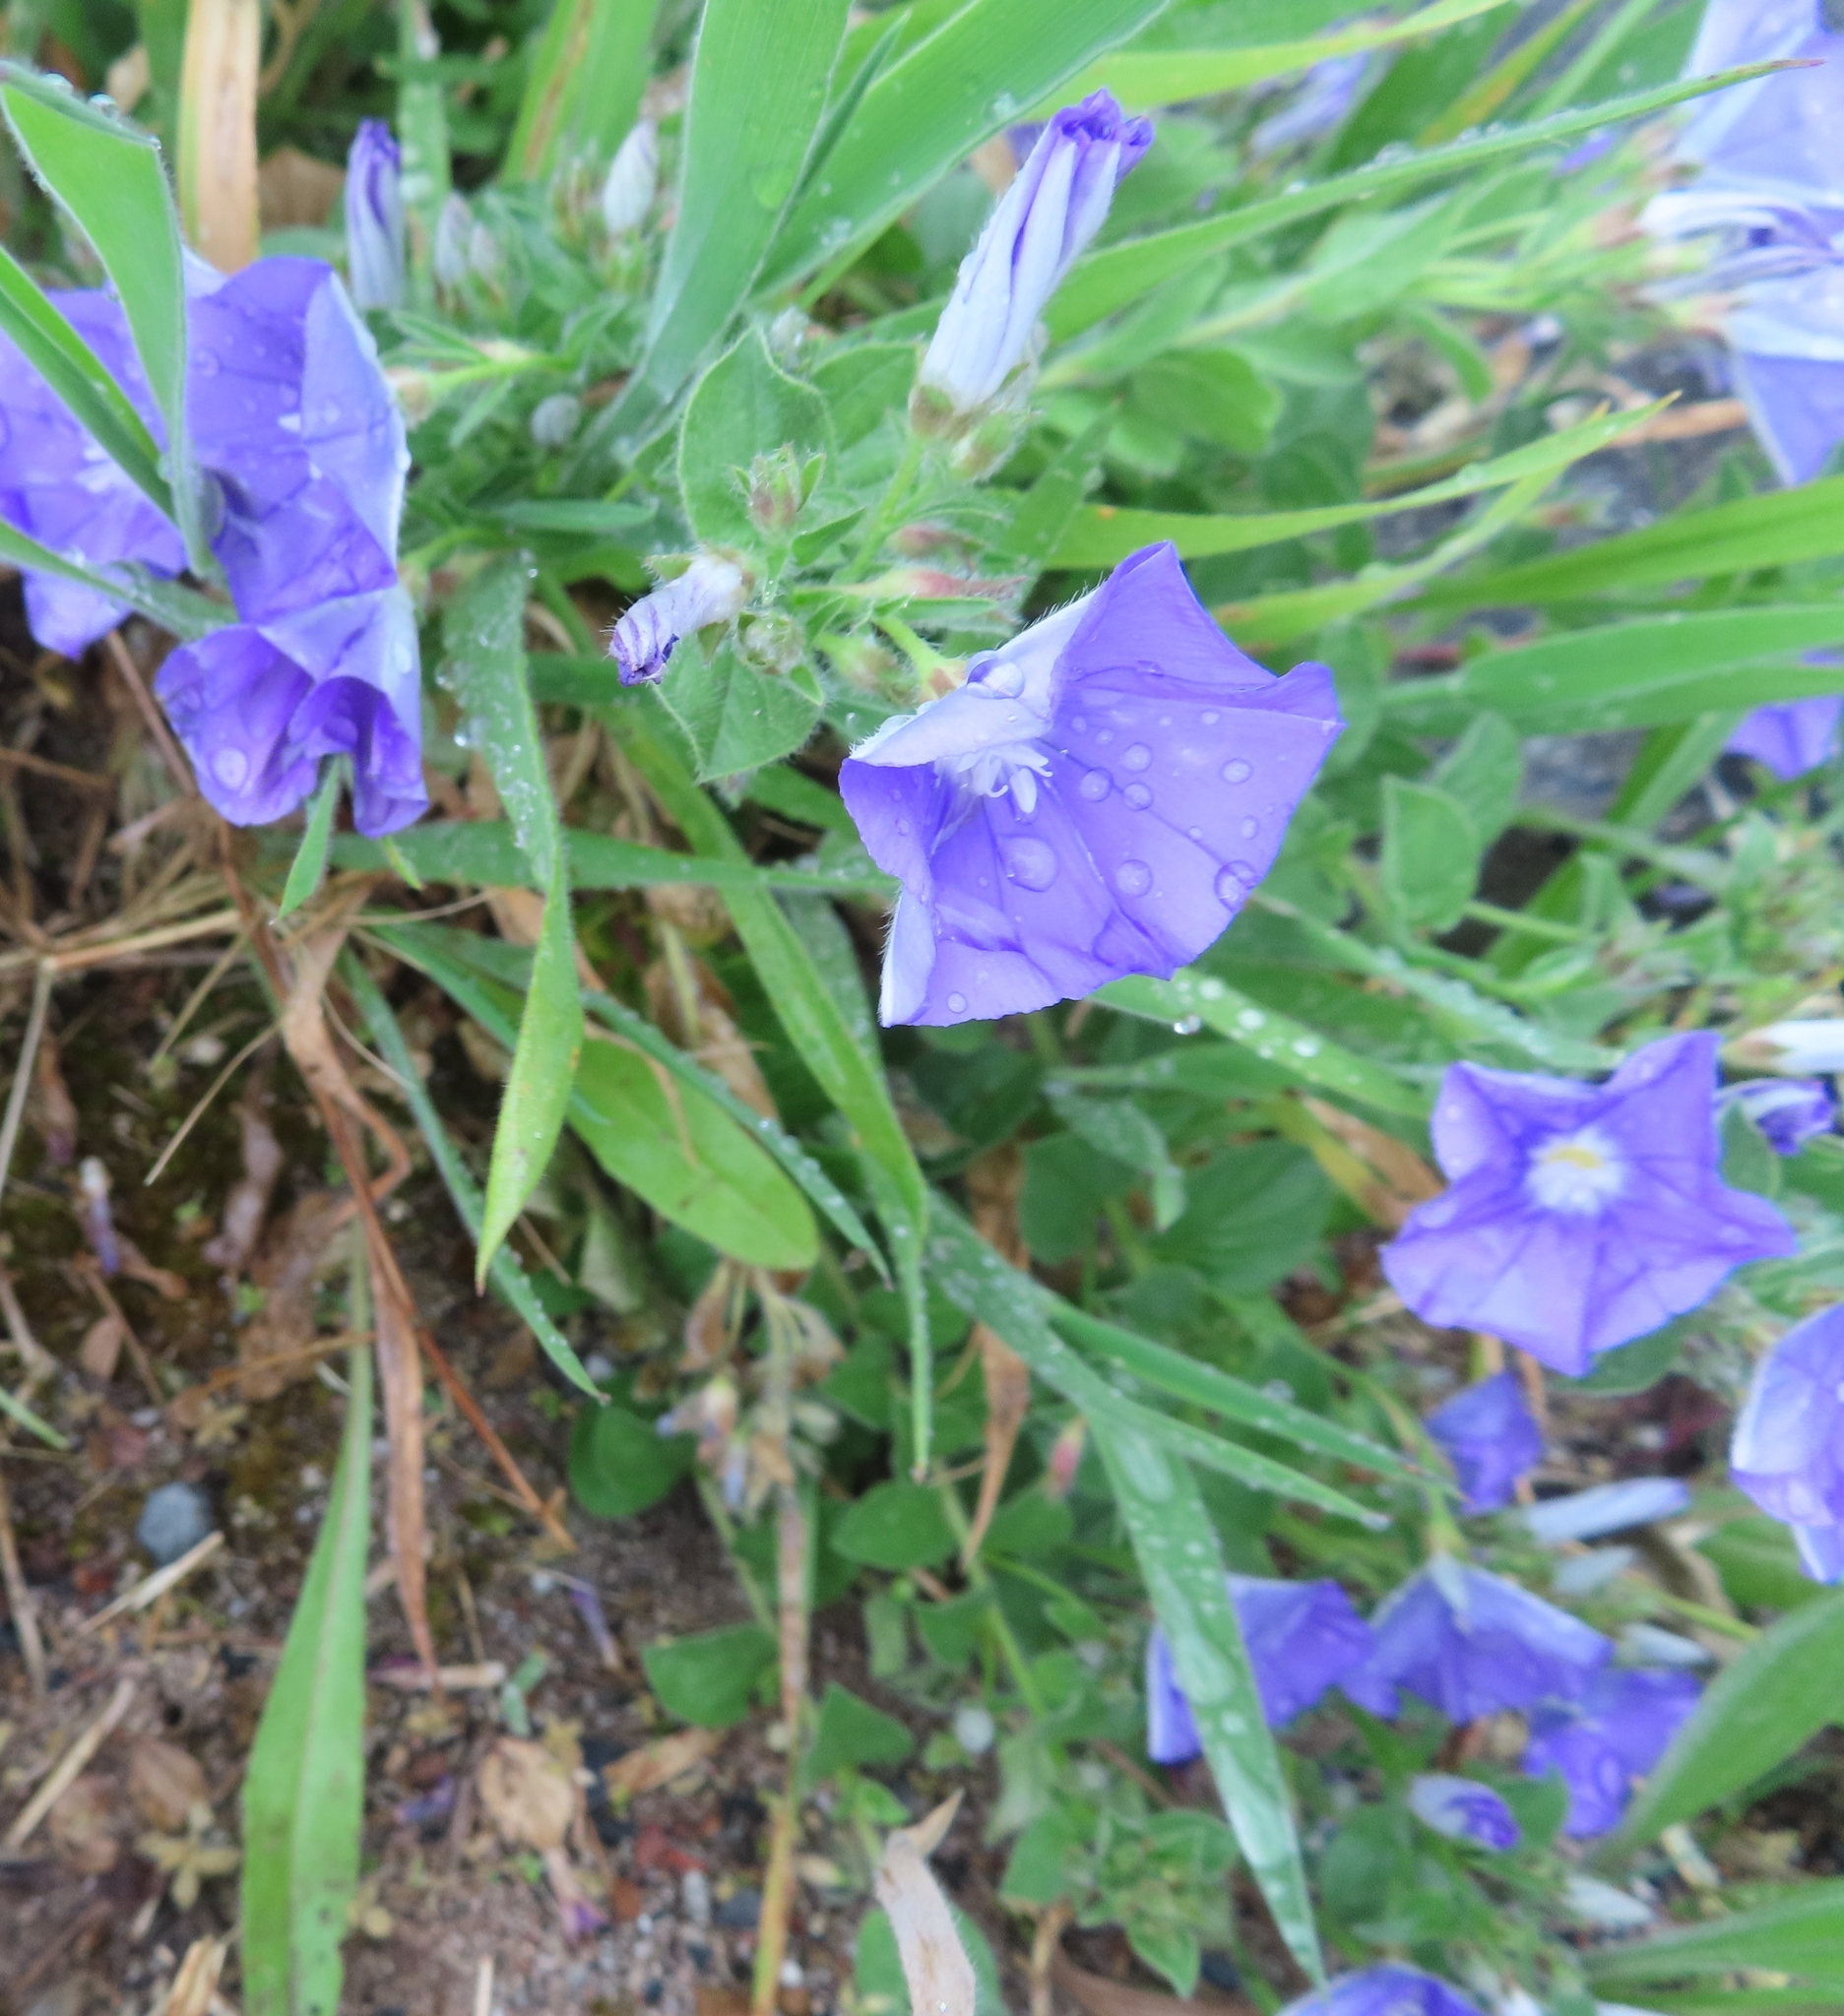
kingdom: Plantae
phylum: Tracheophyta
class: Magnoliopsida
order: Solanales
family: Convolvulaceae
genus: Convolvulus
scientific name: Convolvulus sabatius
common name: Ground blue-convolvulus
